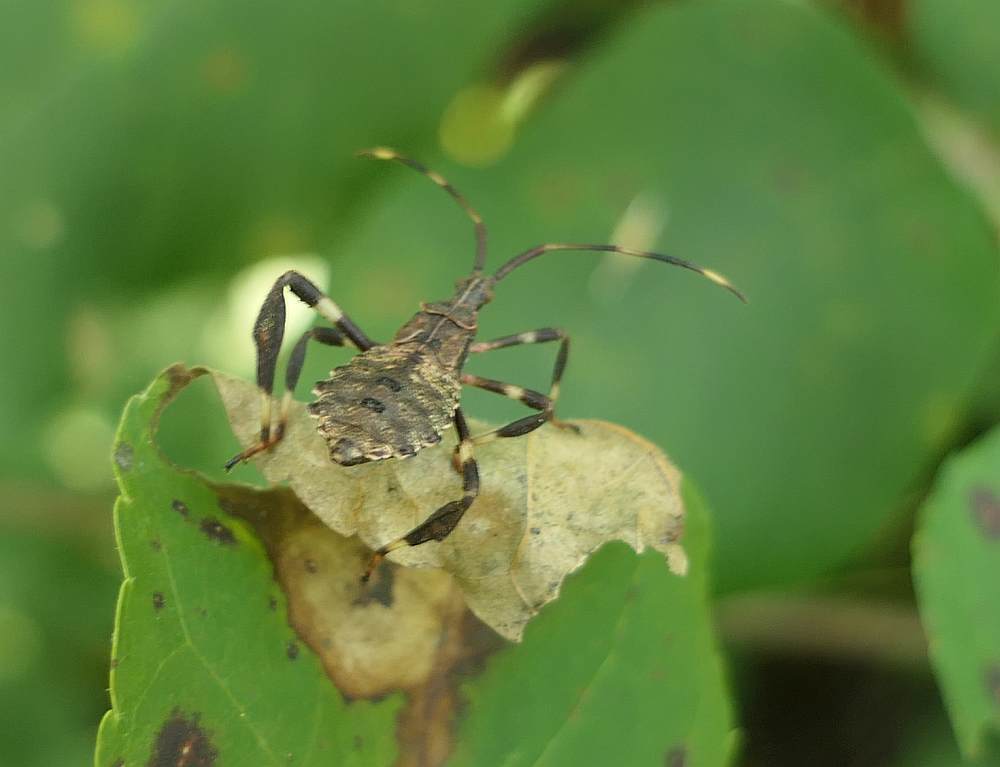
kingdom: Animalia
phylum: Arthropoda
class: Insecta
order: Hemiptera
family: Coreidae
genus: Acanthocephala
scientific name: Acanthocephala terminalis
